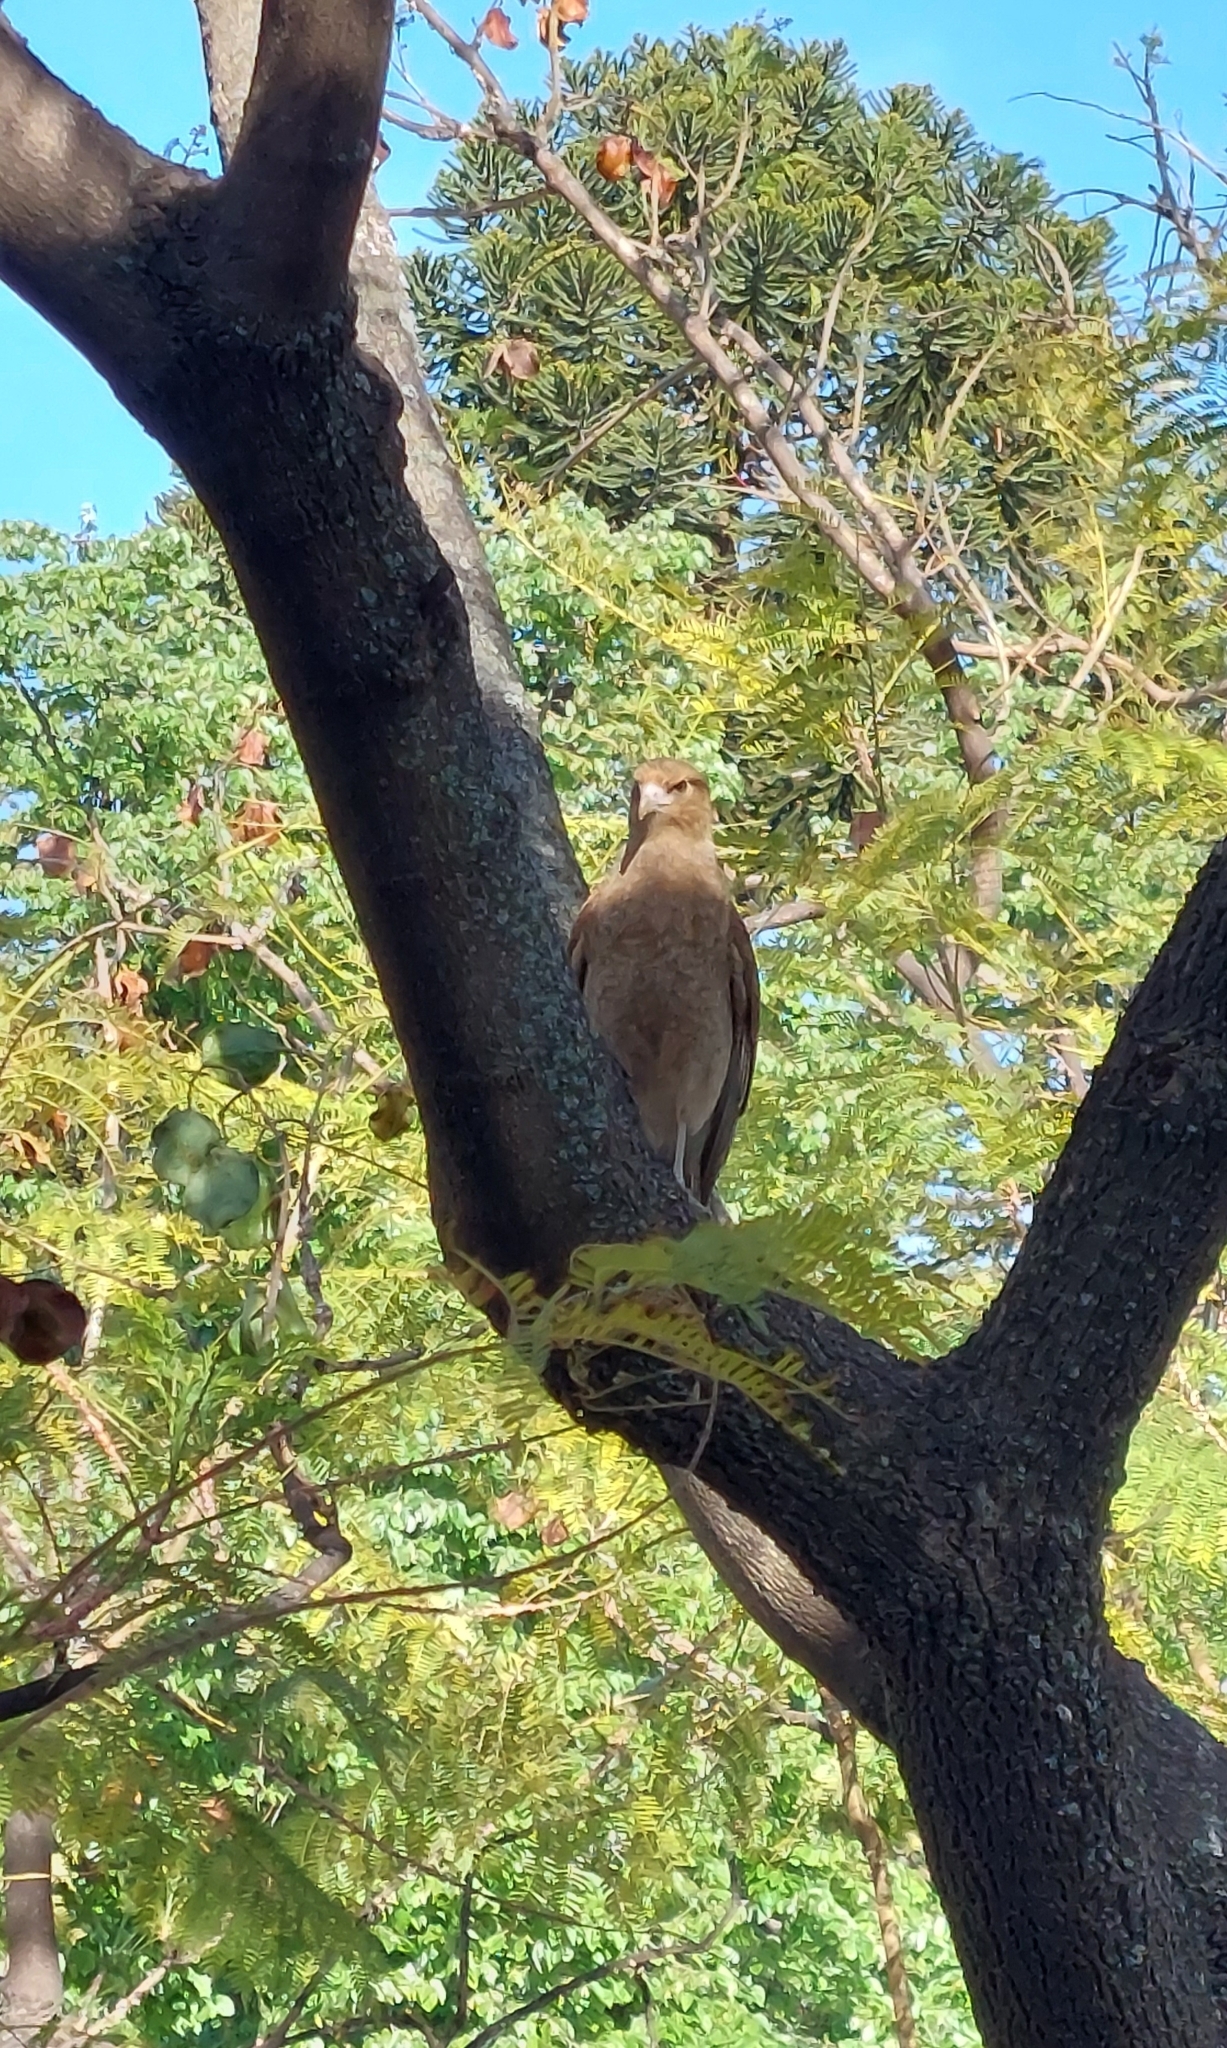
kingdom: Animalia
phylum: Chordata
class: Aves
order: Falconiformes
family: Falconidae
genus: Daptrius
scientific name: Daptrius
